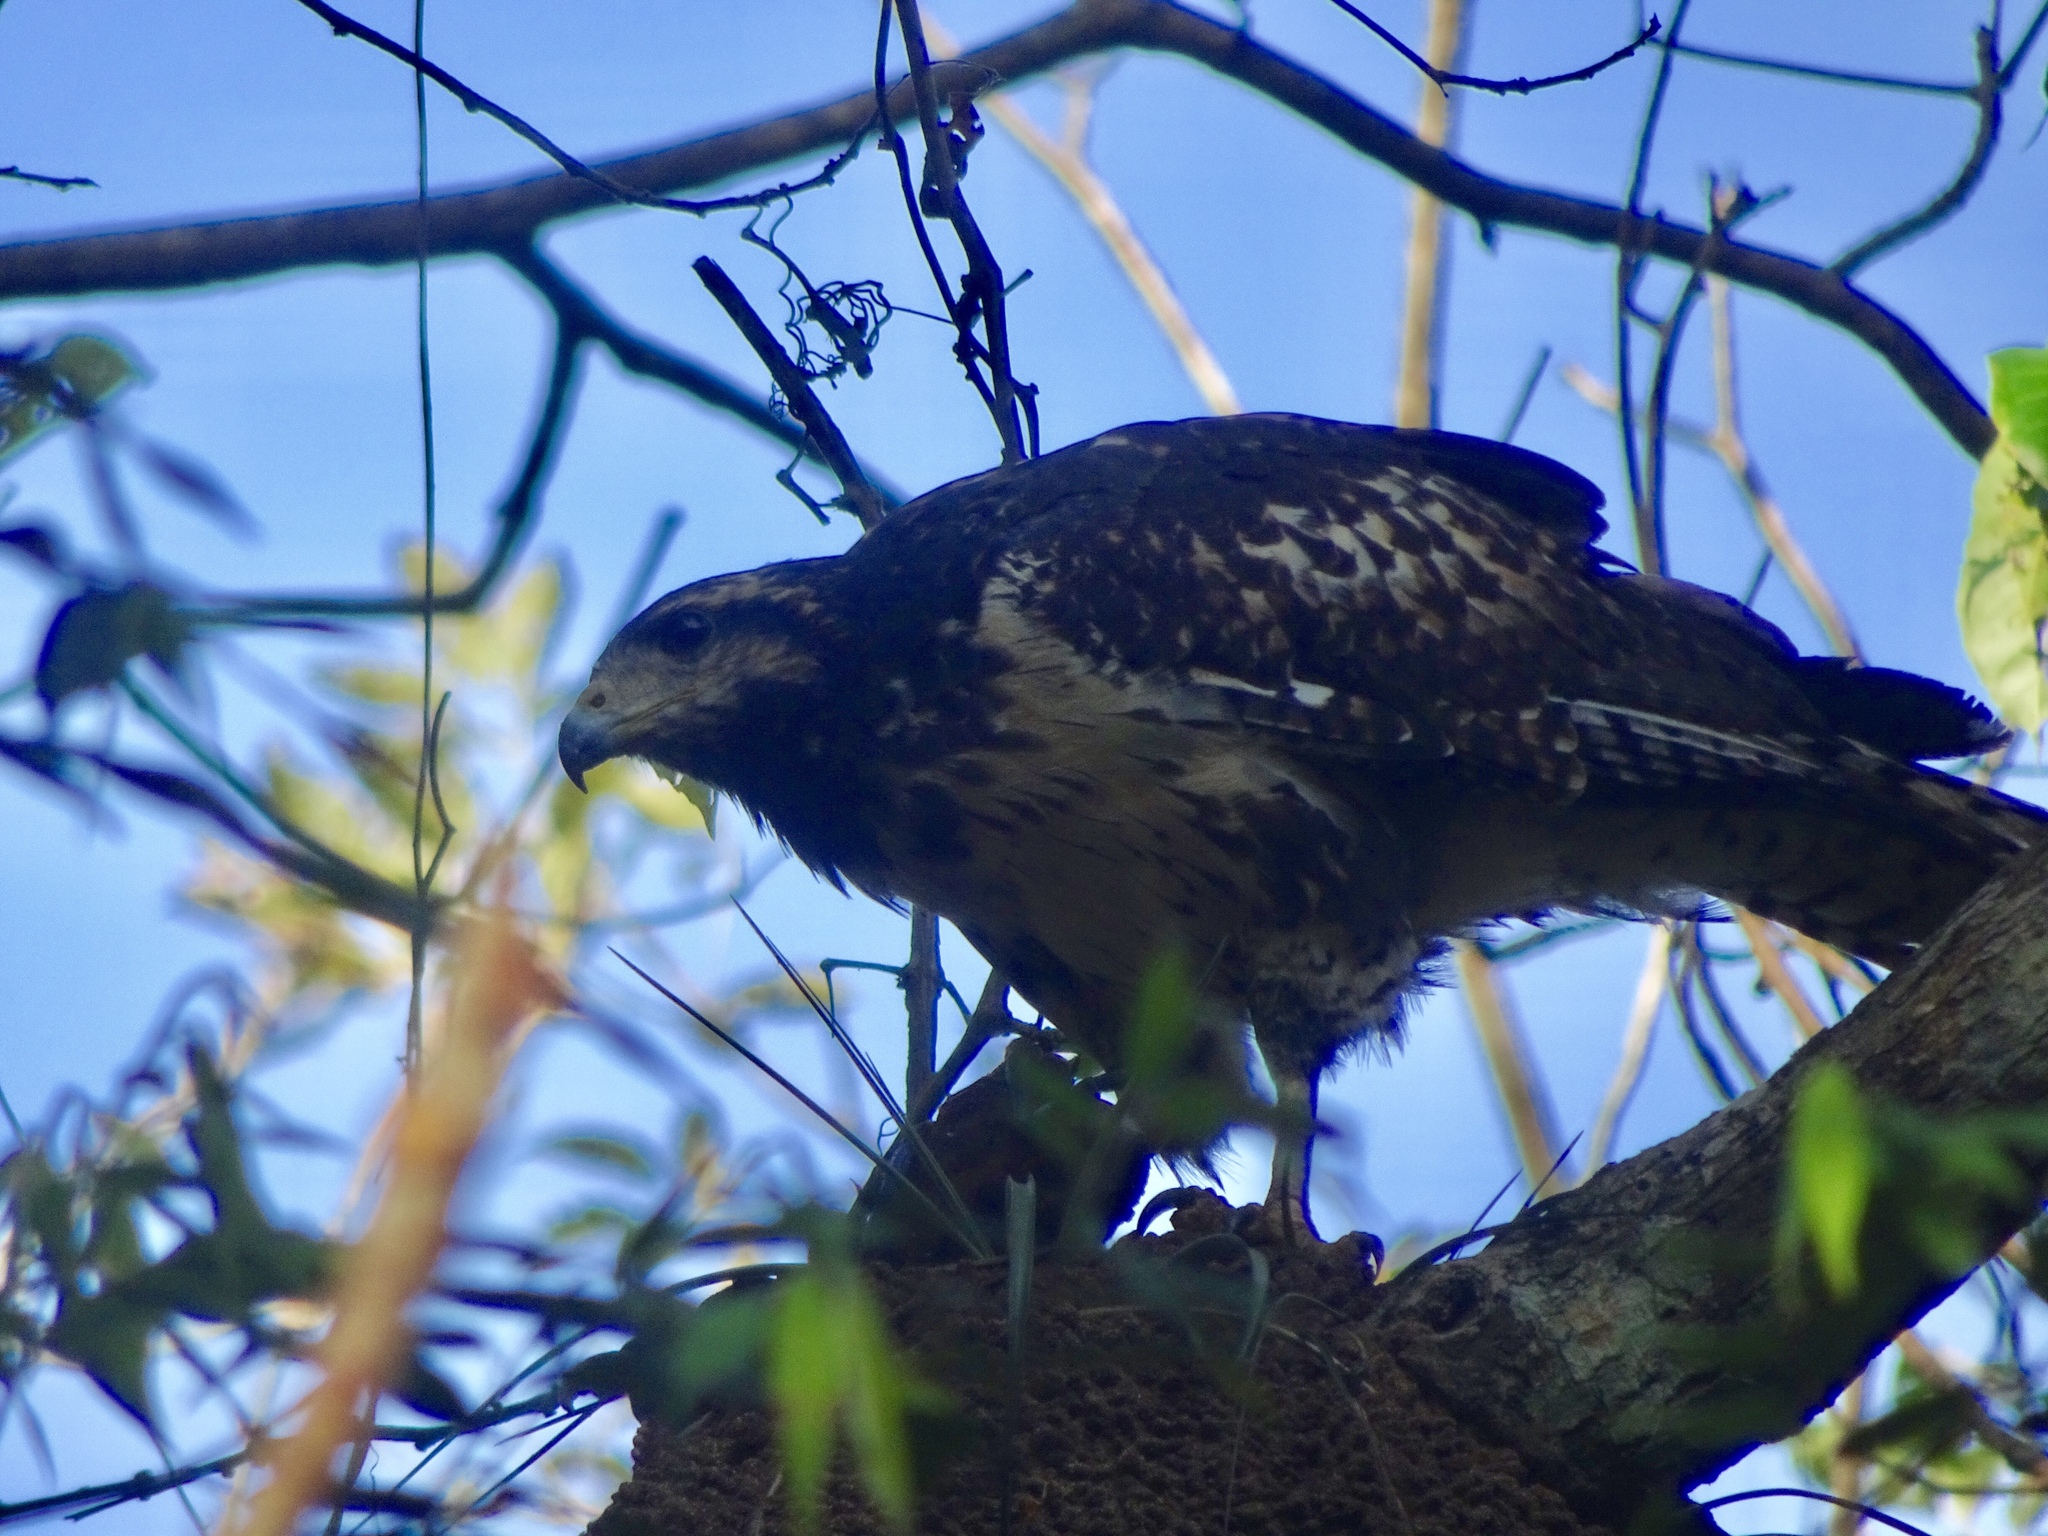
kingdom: Animalia
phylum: Chordata
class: Aves
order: Accipitriformes
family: Accipitridae
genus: Buteogallus
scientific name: Buteogallus anthracinus
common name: Common black hawk
